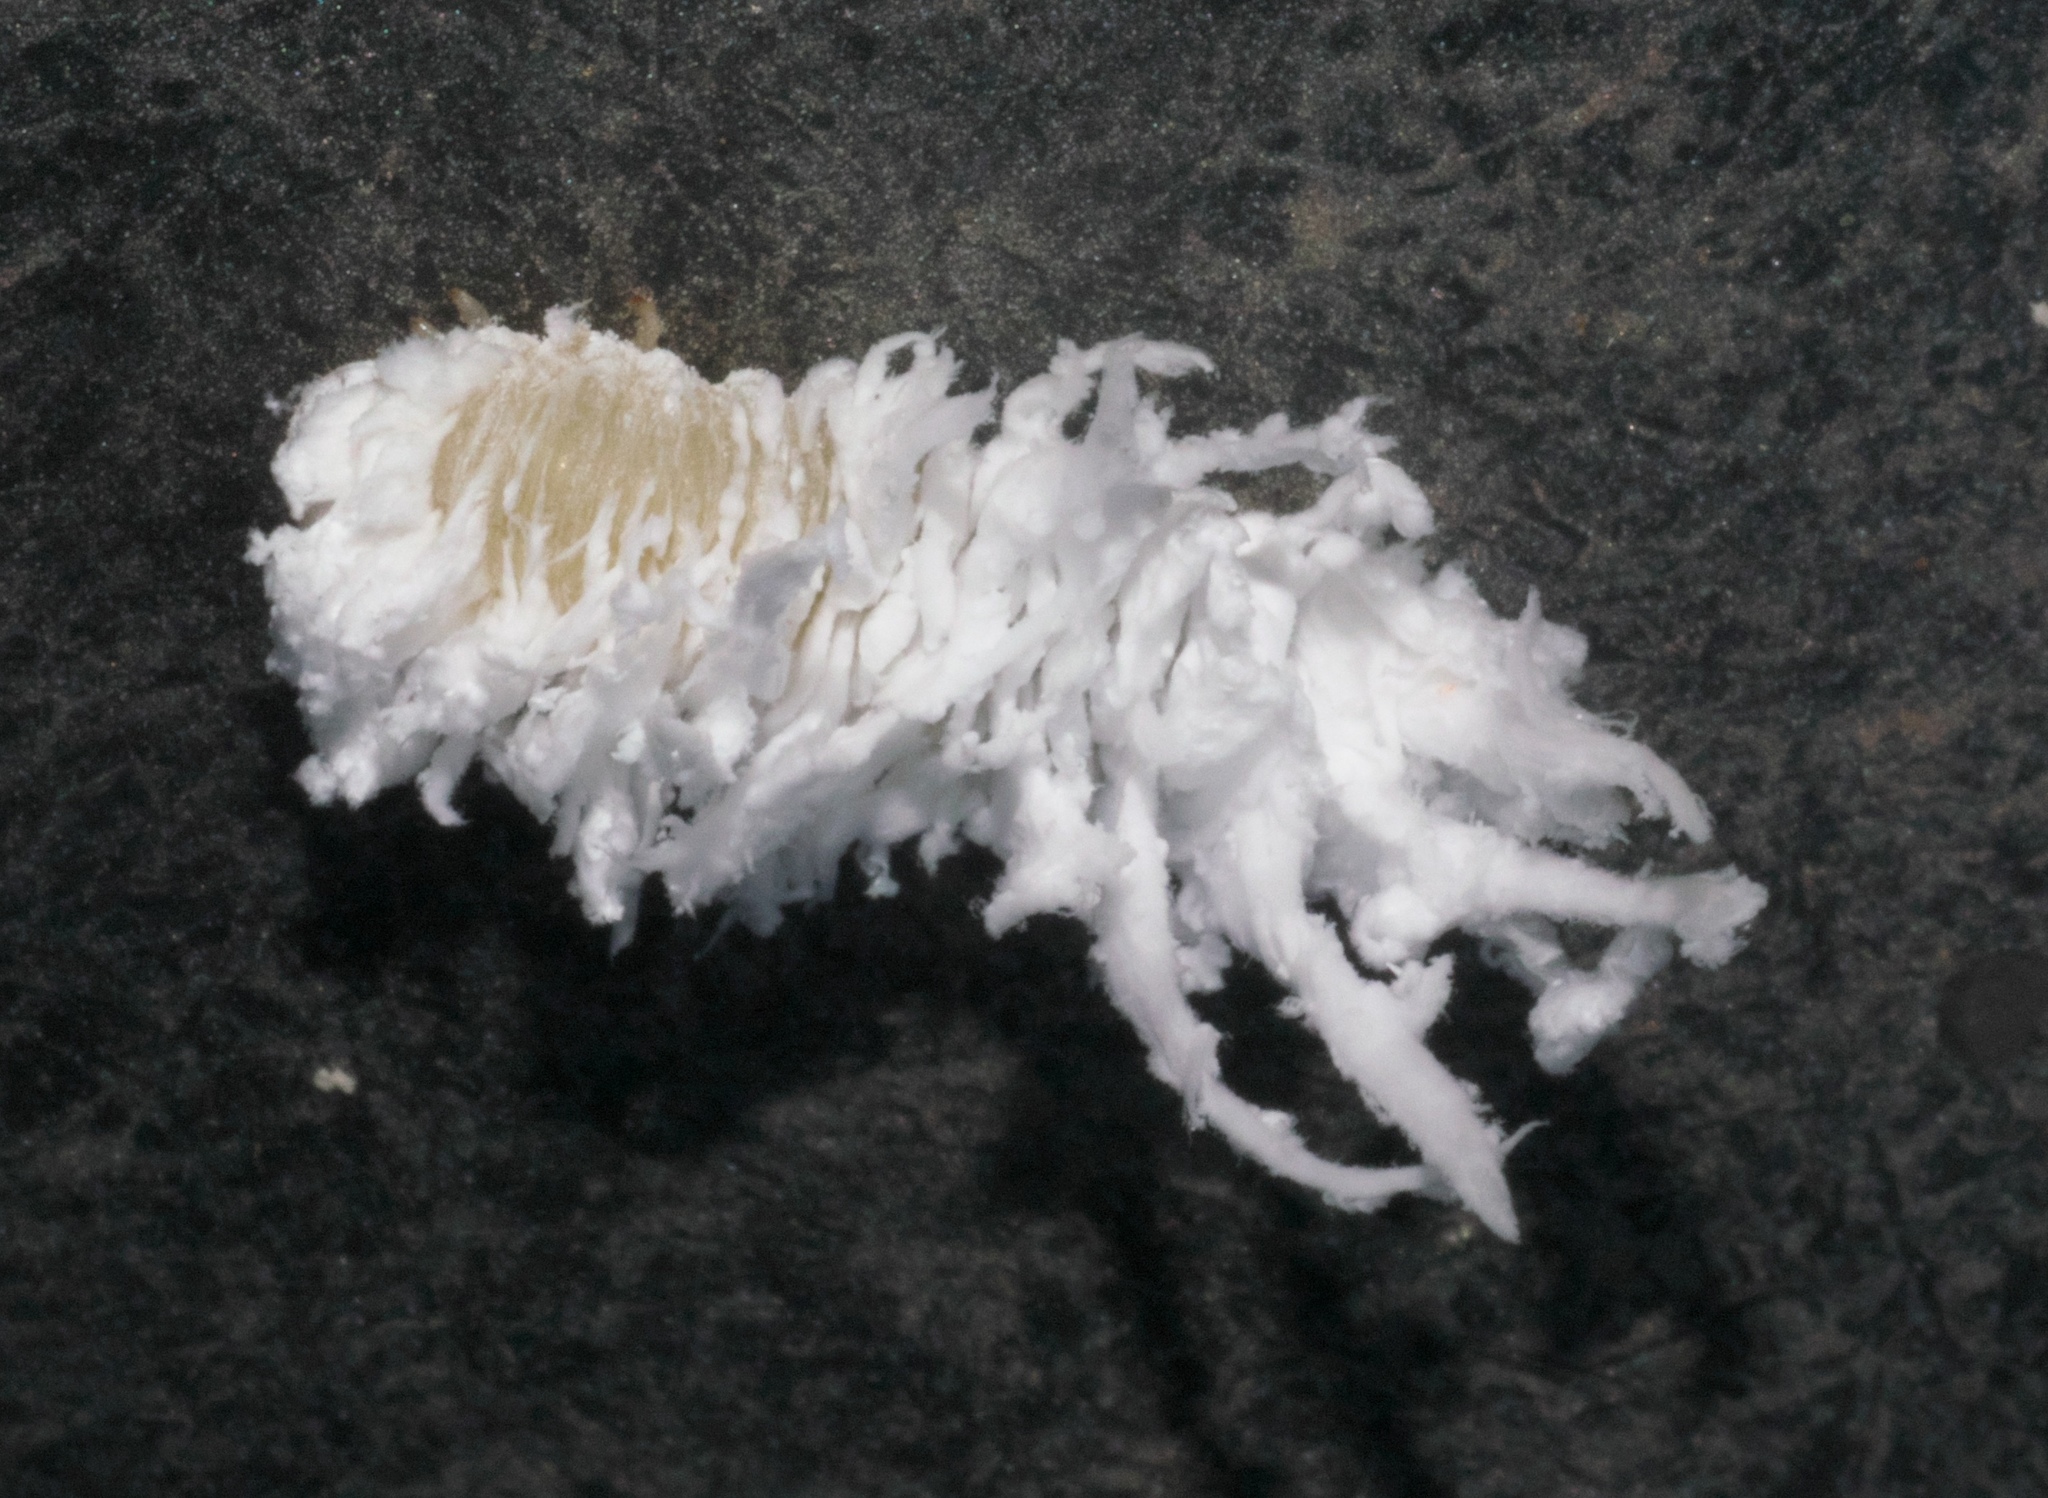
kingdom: Animalia
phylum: Arthropoda
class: Insecta
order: Hymenoptera
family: Tenthredinidae
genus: Eriocampa
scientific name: Eriocampa juglandis
